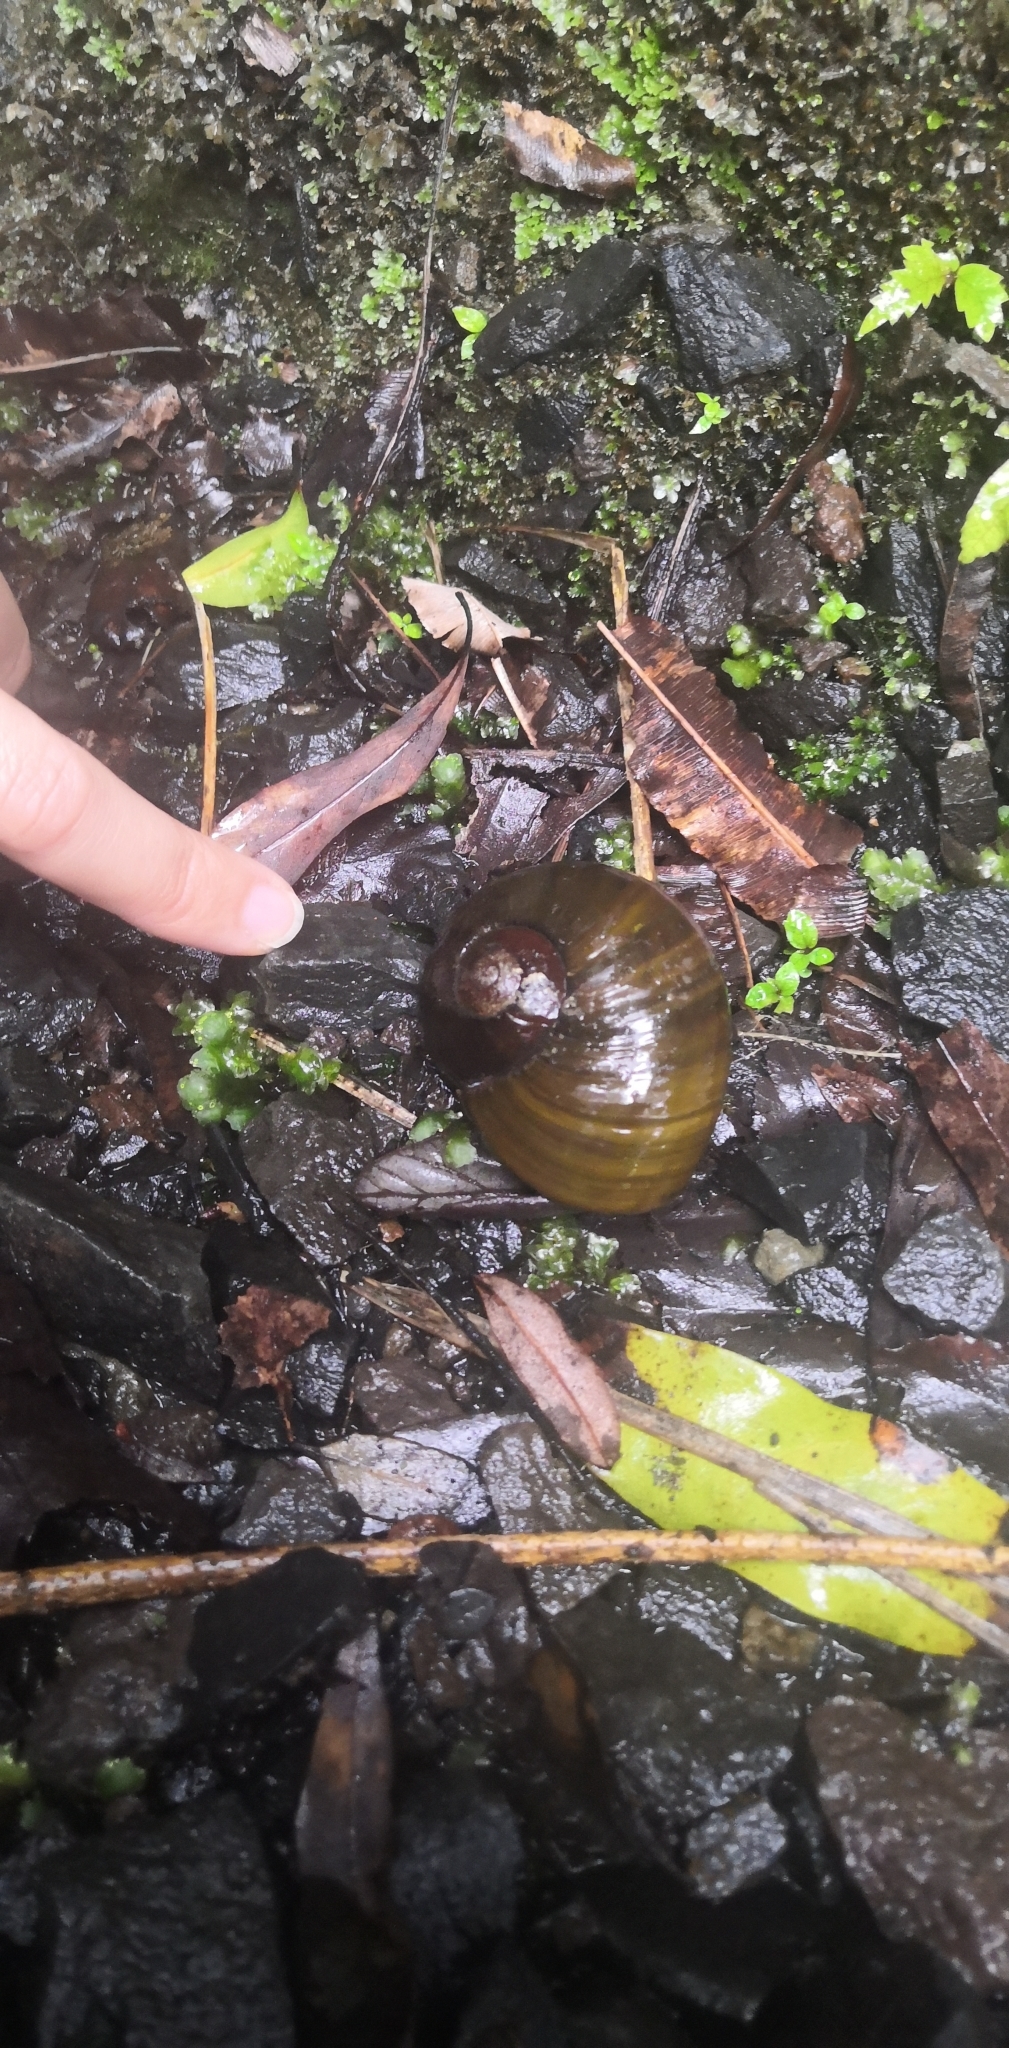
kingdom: Animalia
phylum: Mollusca
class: Gastropoda
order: Stylommatophora
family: Rhytididae
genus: Paryphanta
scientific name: Paryphanta busbyi
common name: Kauri snail
